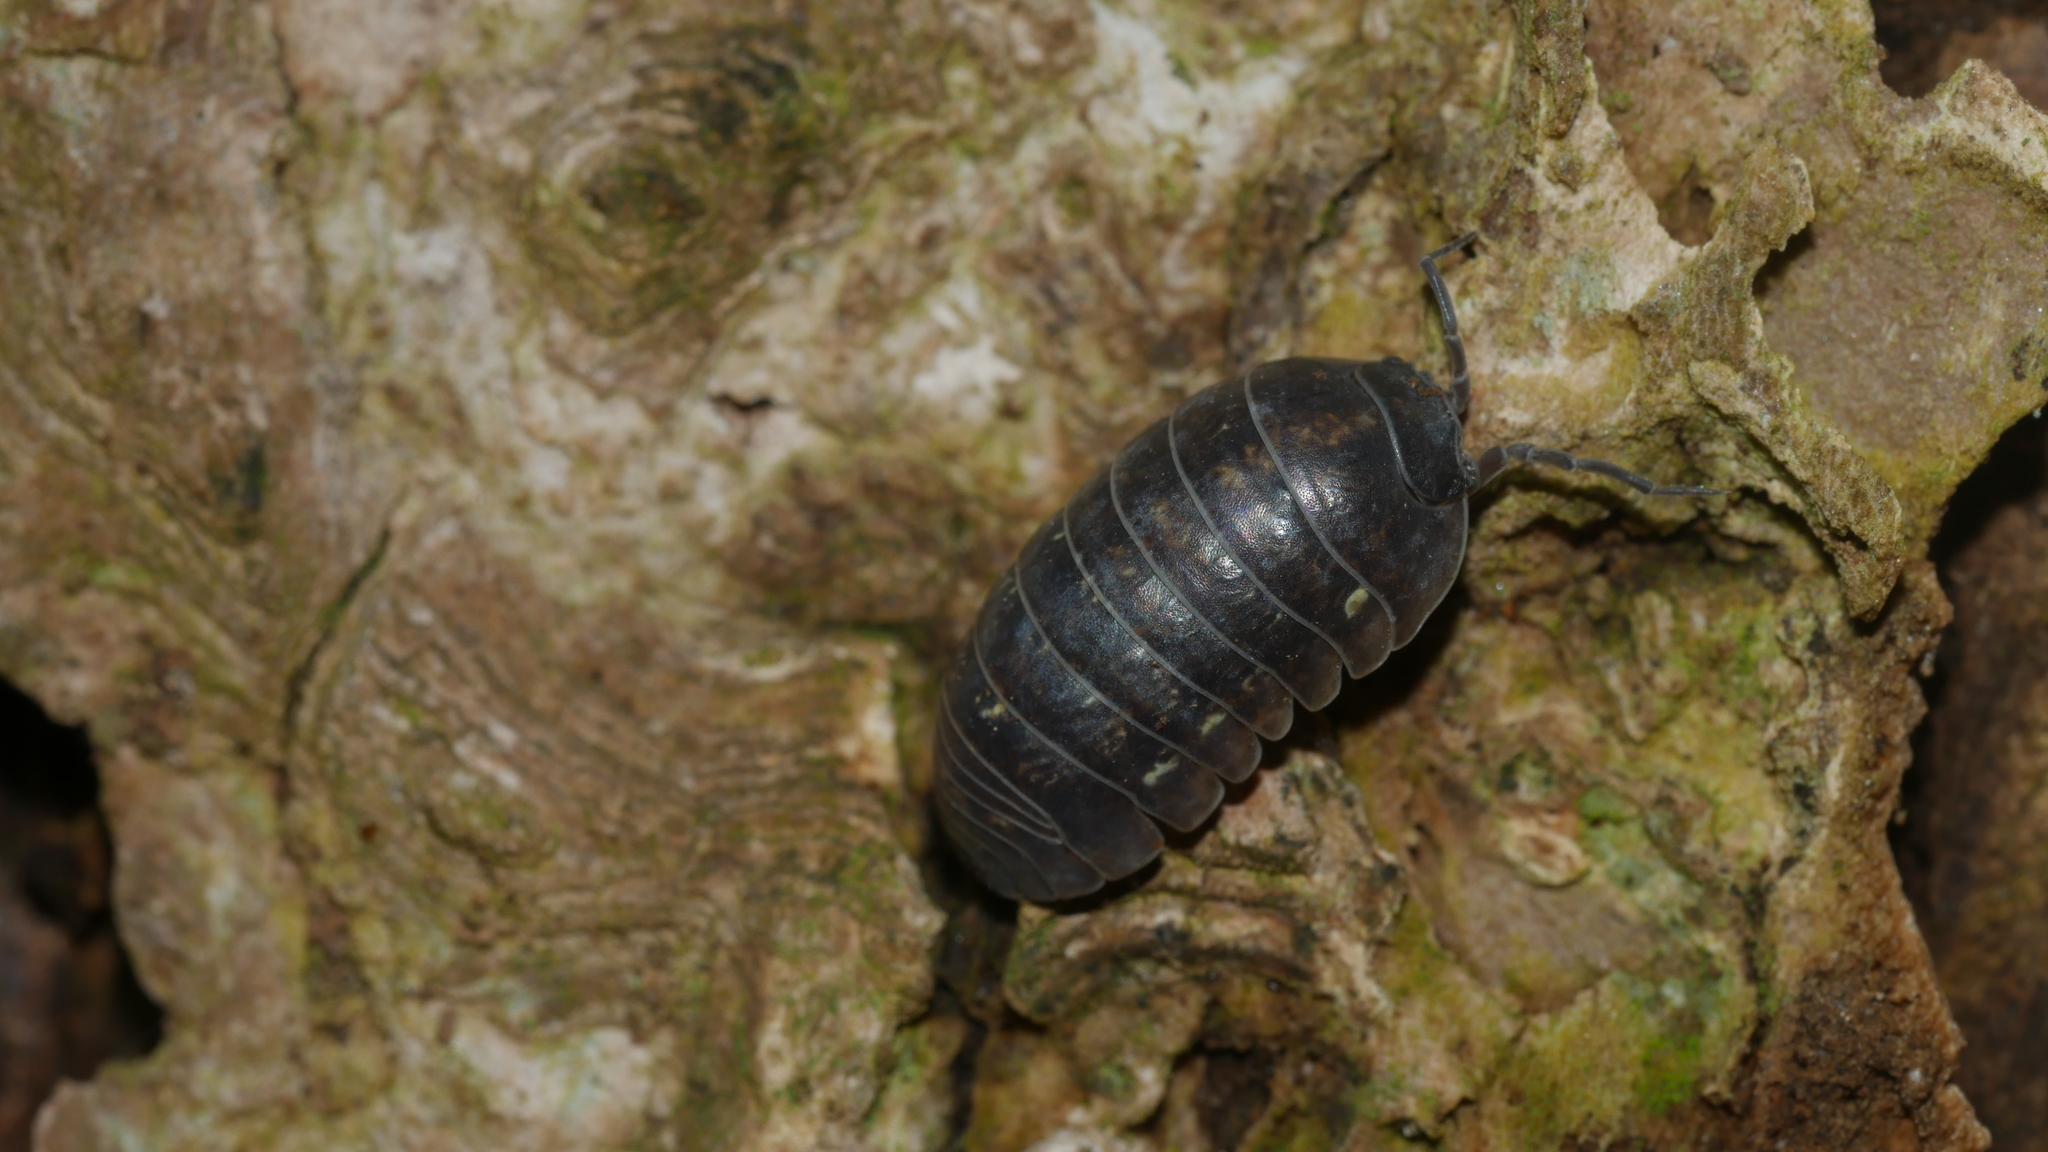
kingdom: Animalia
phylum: Arthropoda
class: Malacostraca
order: Isopoda
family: Armadillidiidae
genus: Armadillidium
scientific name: Armadillidium vulgare
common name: Common pill woodlouse
